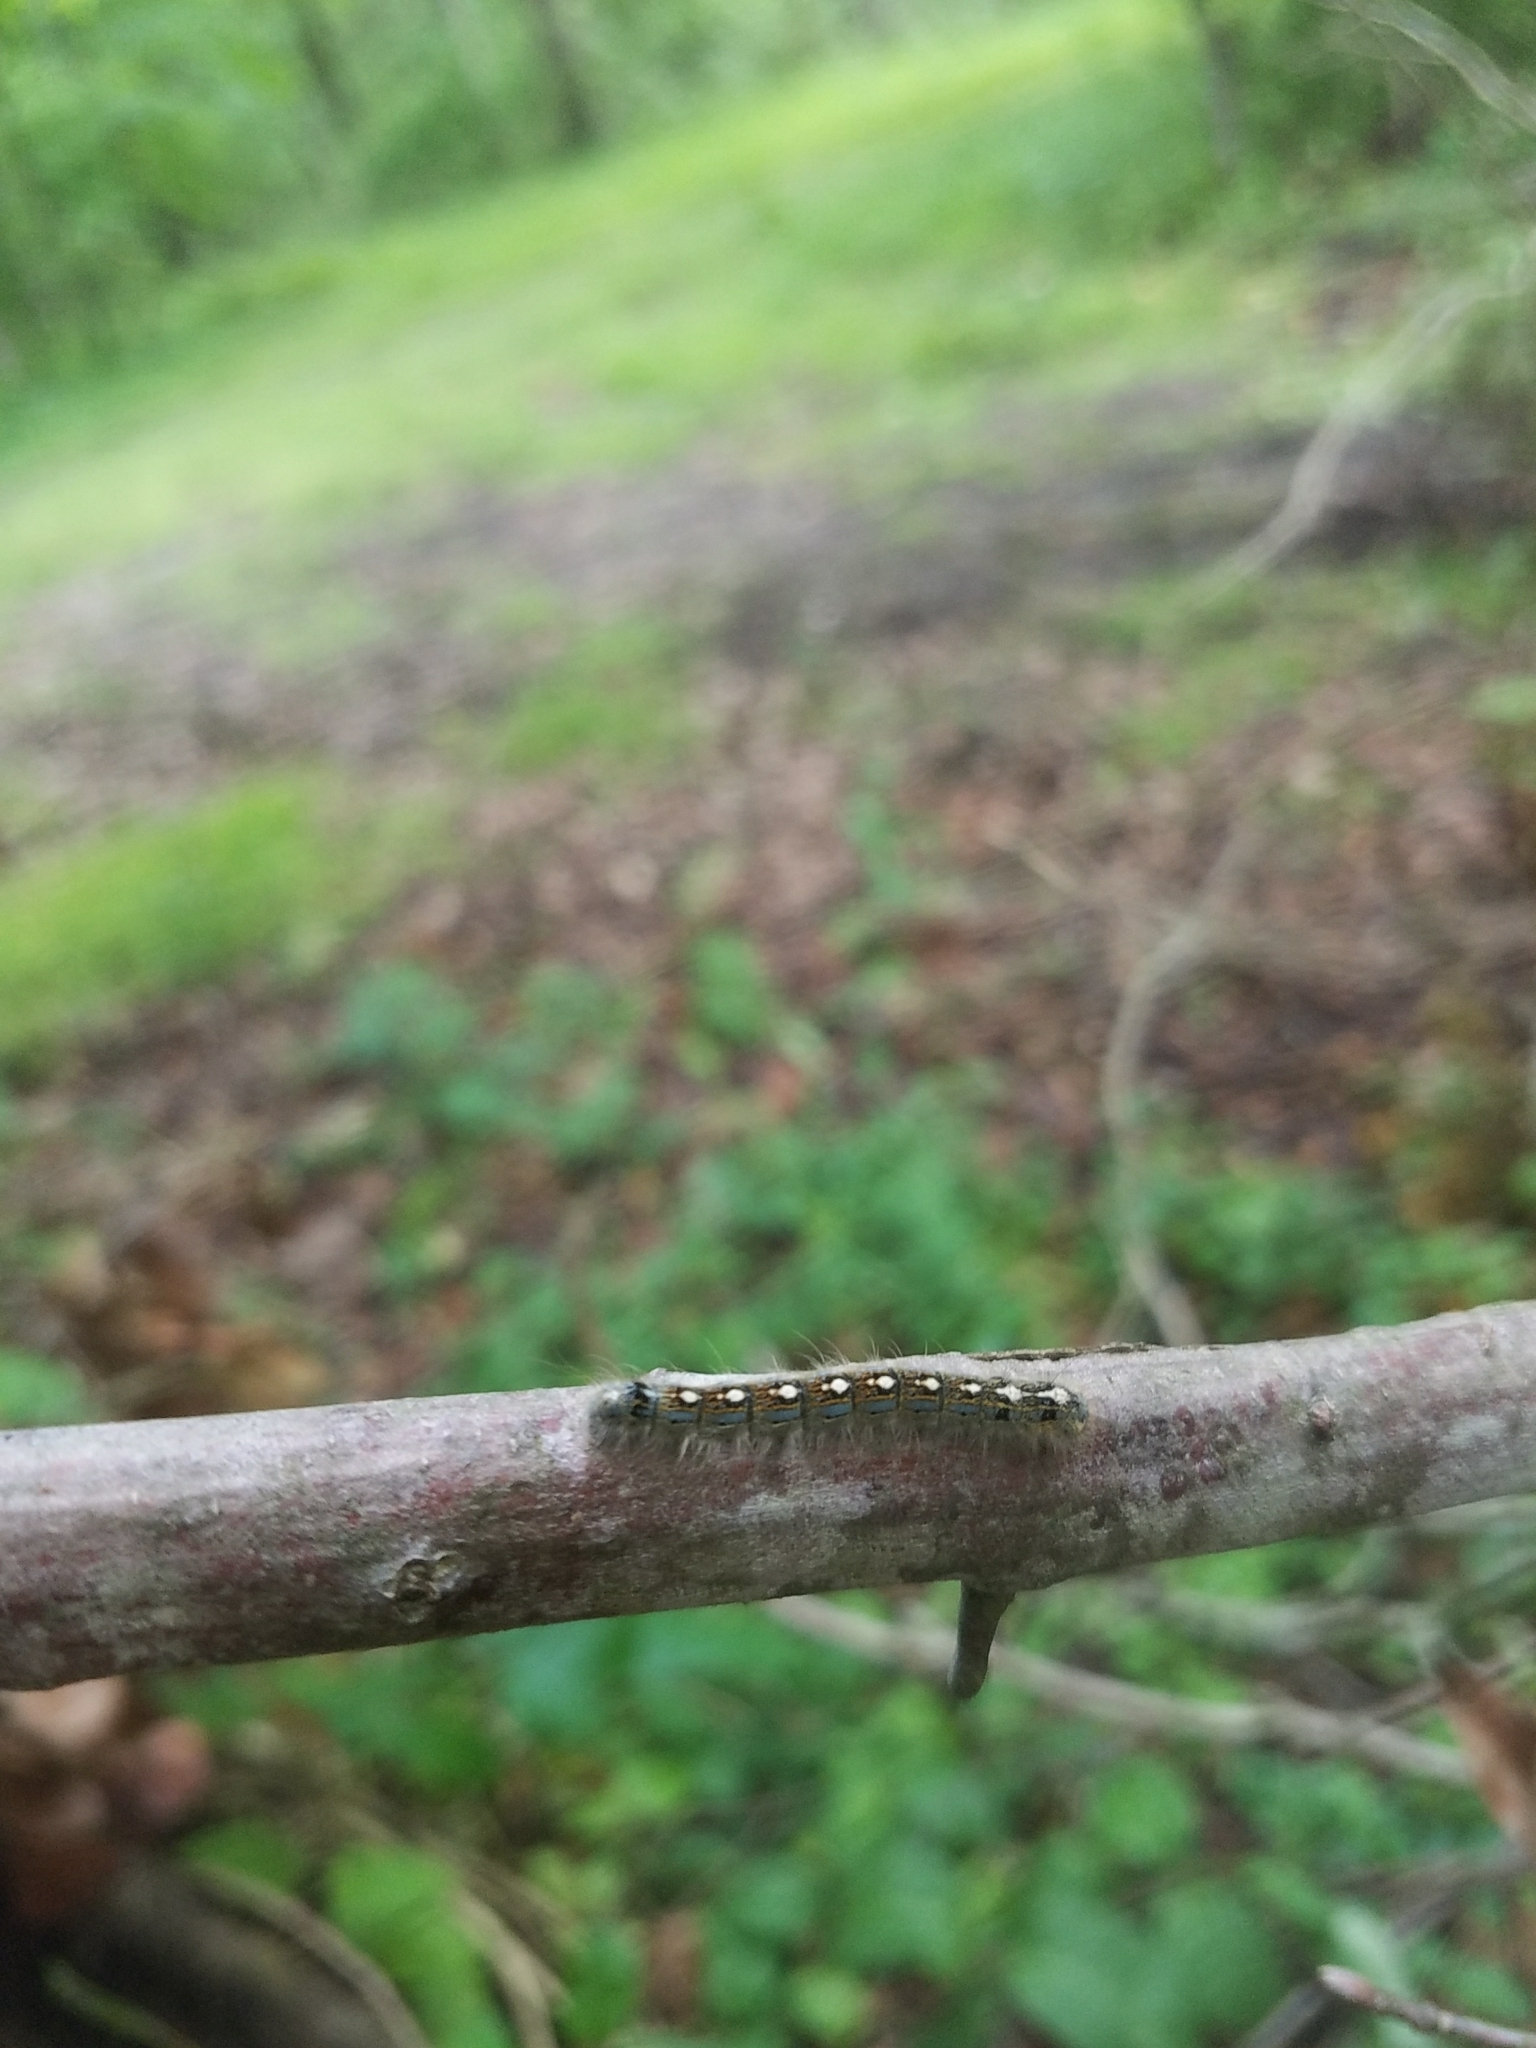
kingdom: Animalia
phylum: Arthropoda
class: Insecta
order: Lepidoptera
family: Lasiocampidae
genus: Malacosoma
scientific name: Malacosoma disstria
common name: Forest tent caterpillar
